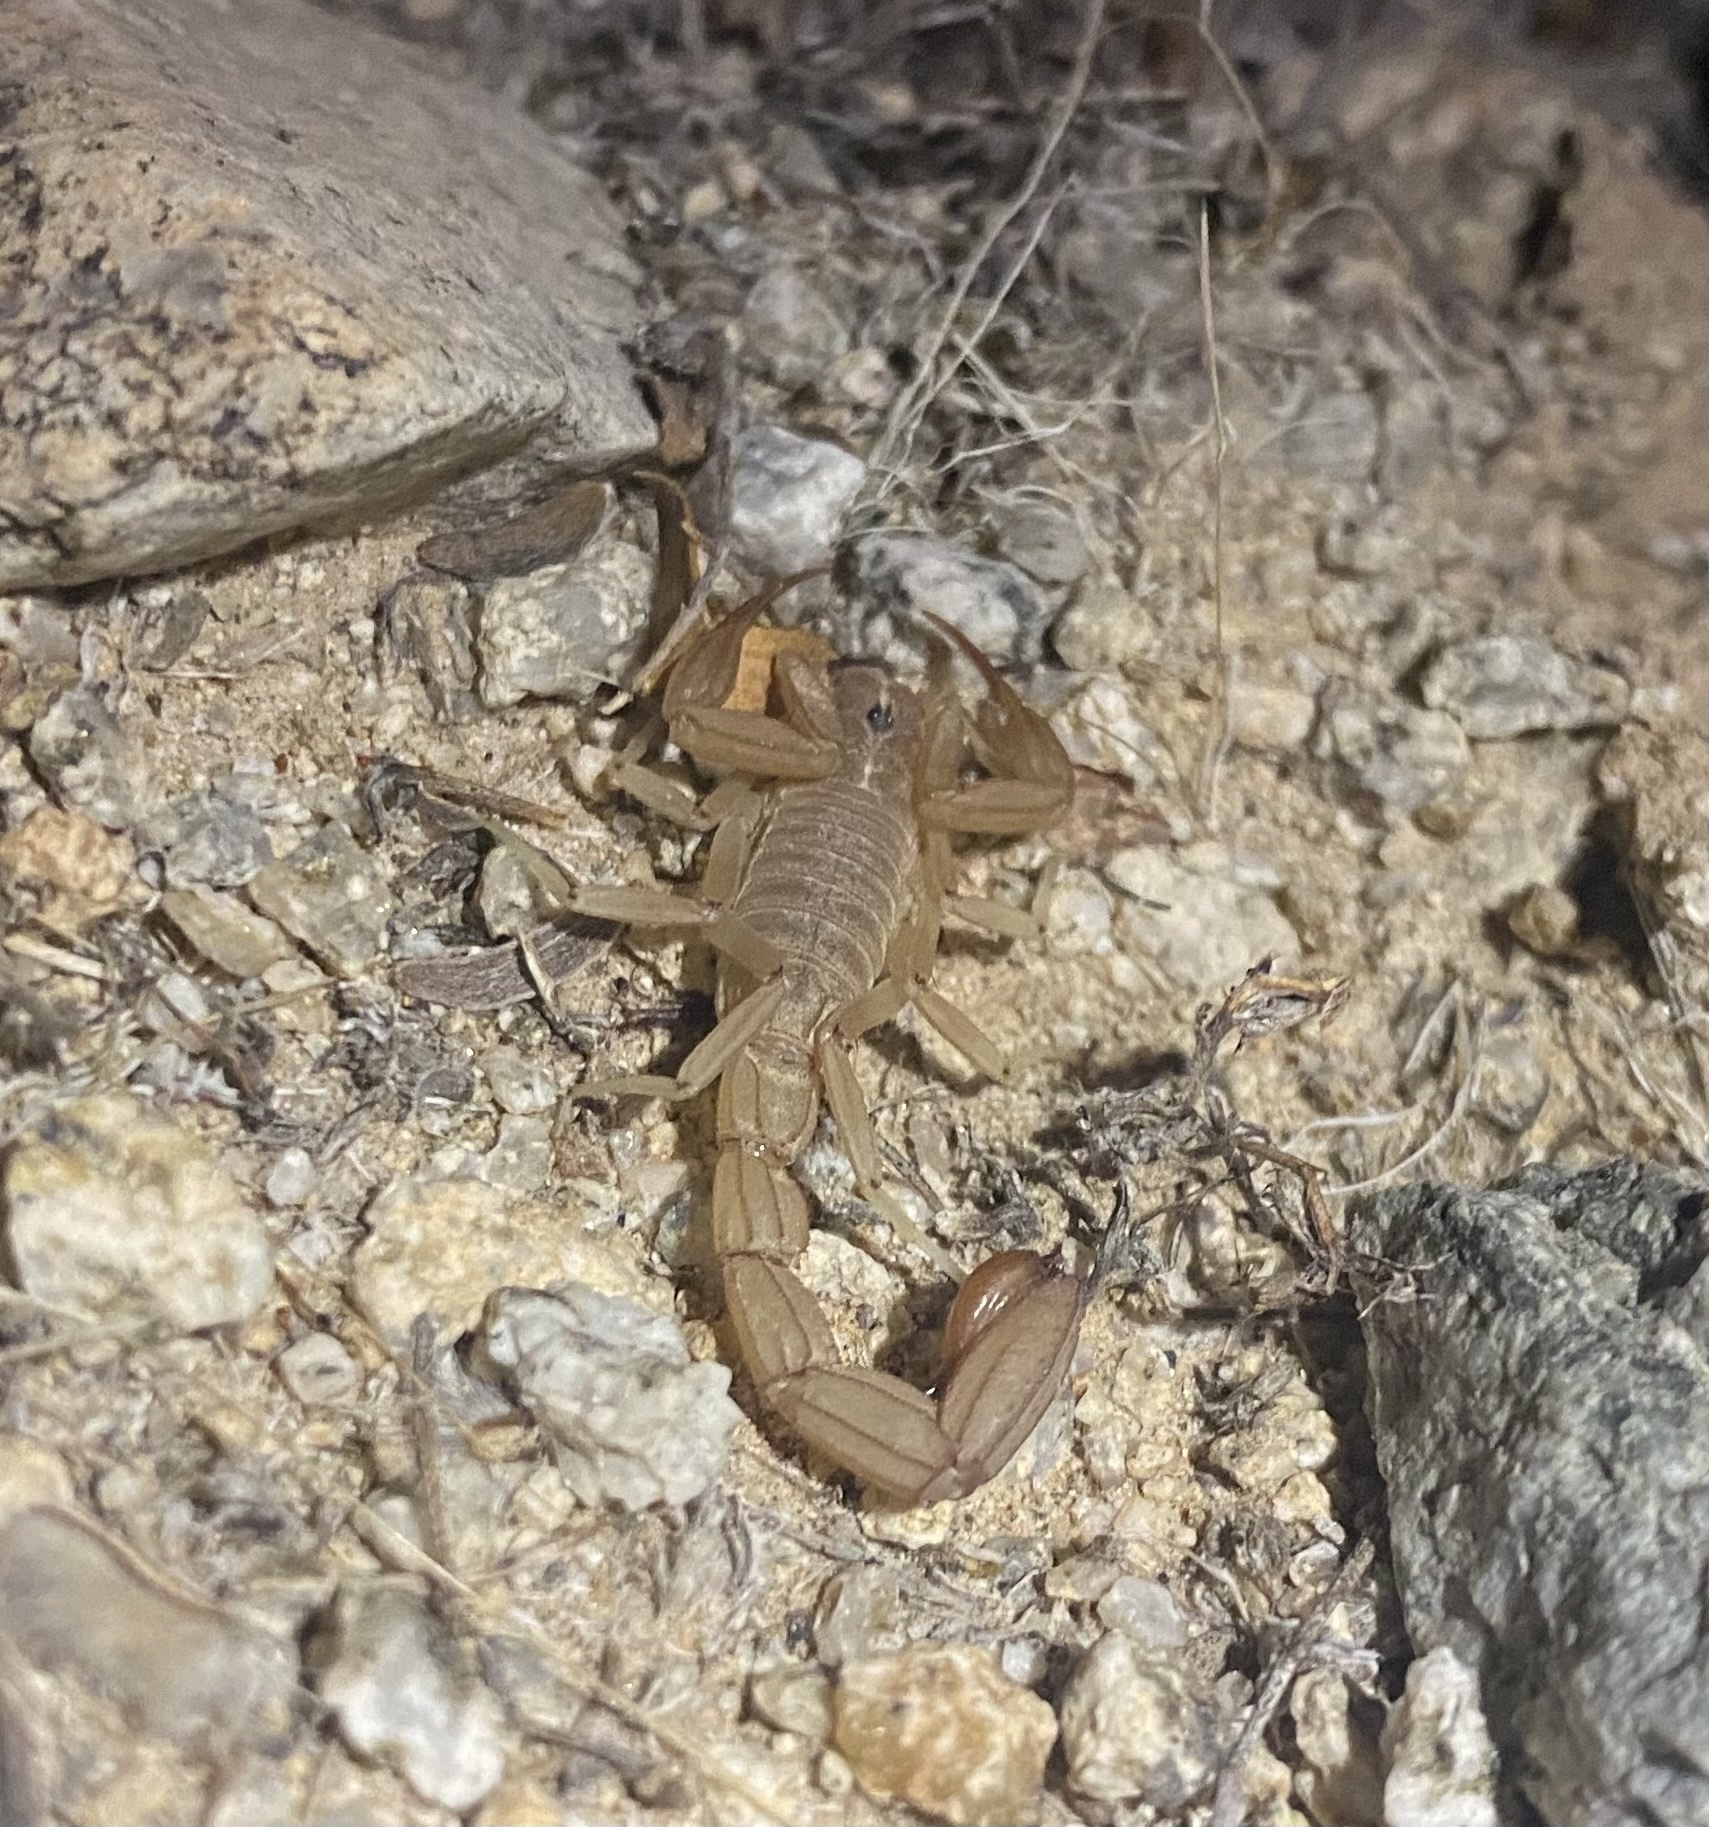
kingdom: Animalia
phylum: Arthropoda
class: Arachnida
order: Scorpiones
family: Vaejovidae
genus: Paravaejovis
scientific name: Paravaejovis confusus
